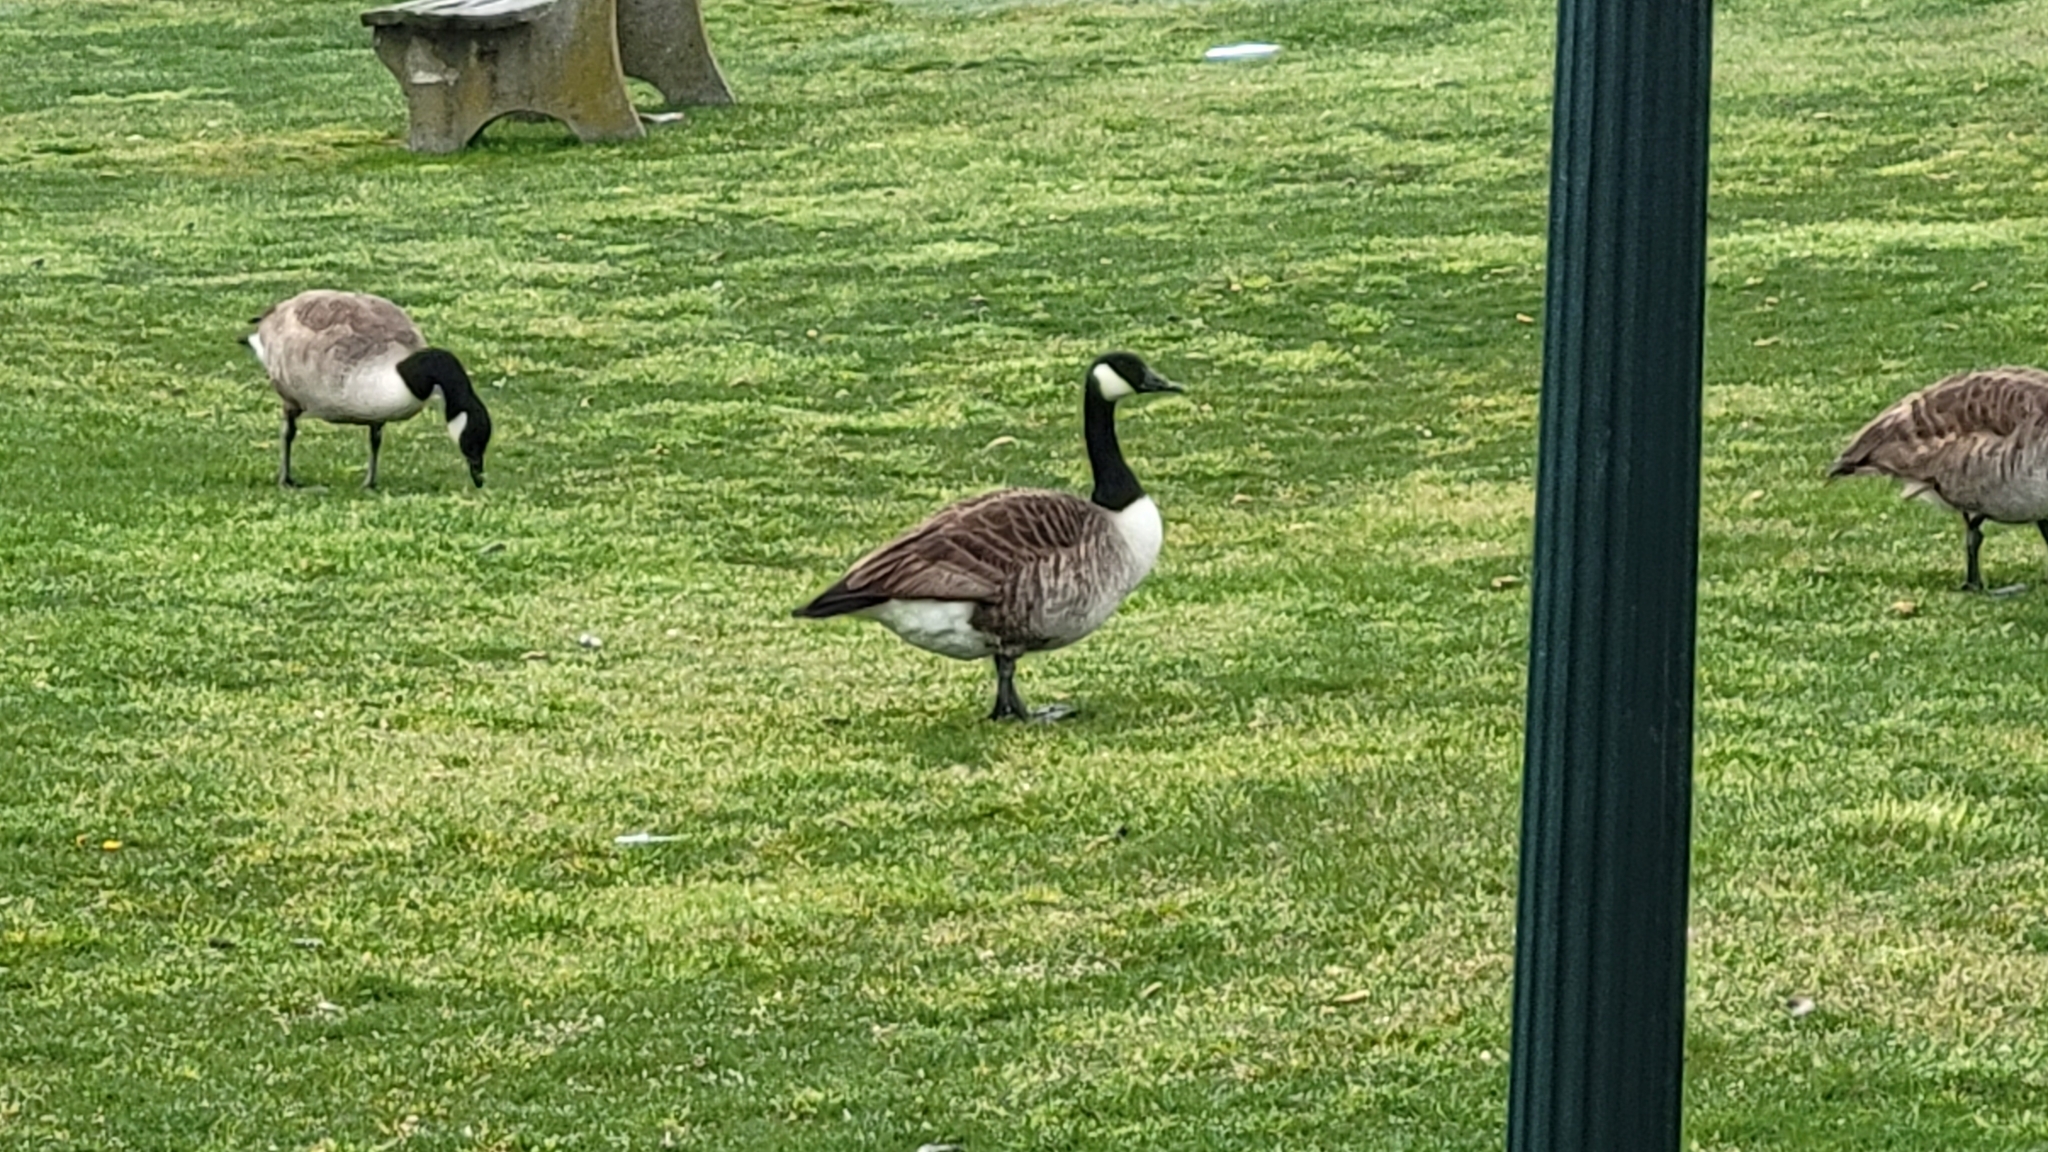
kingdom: Animalia
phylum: Chordata
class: Aves
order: Anseriformes
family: Anatidae
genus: Branta
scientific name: Branta canadensis
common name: Canada goose
